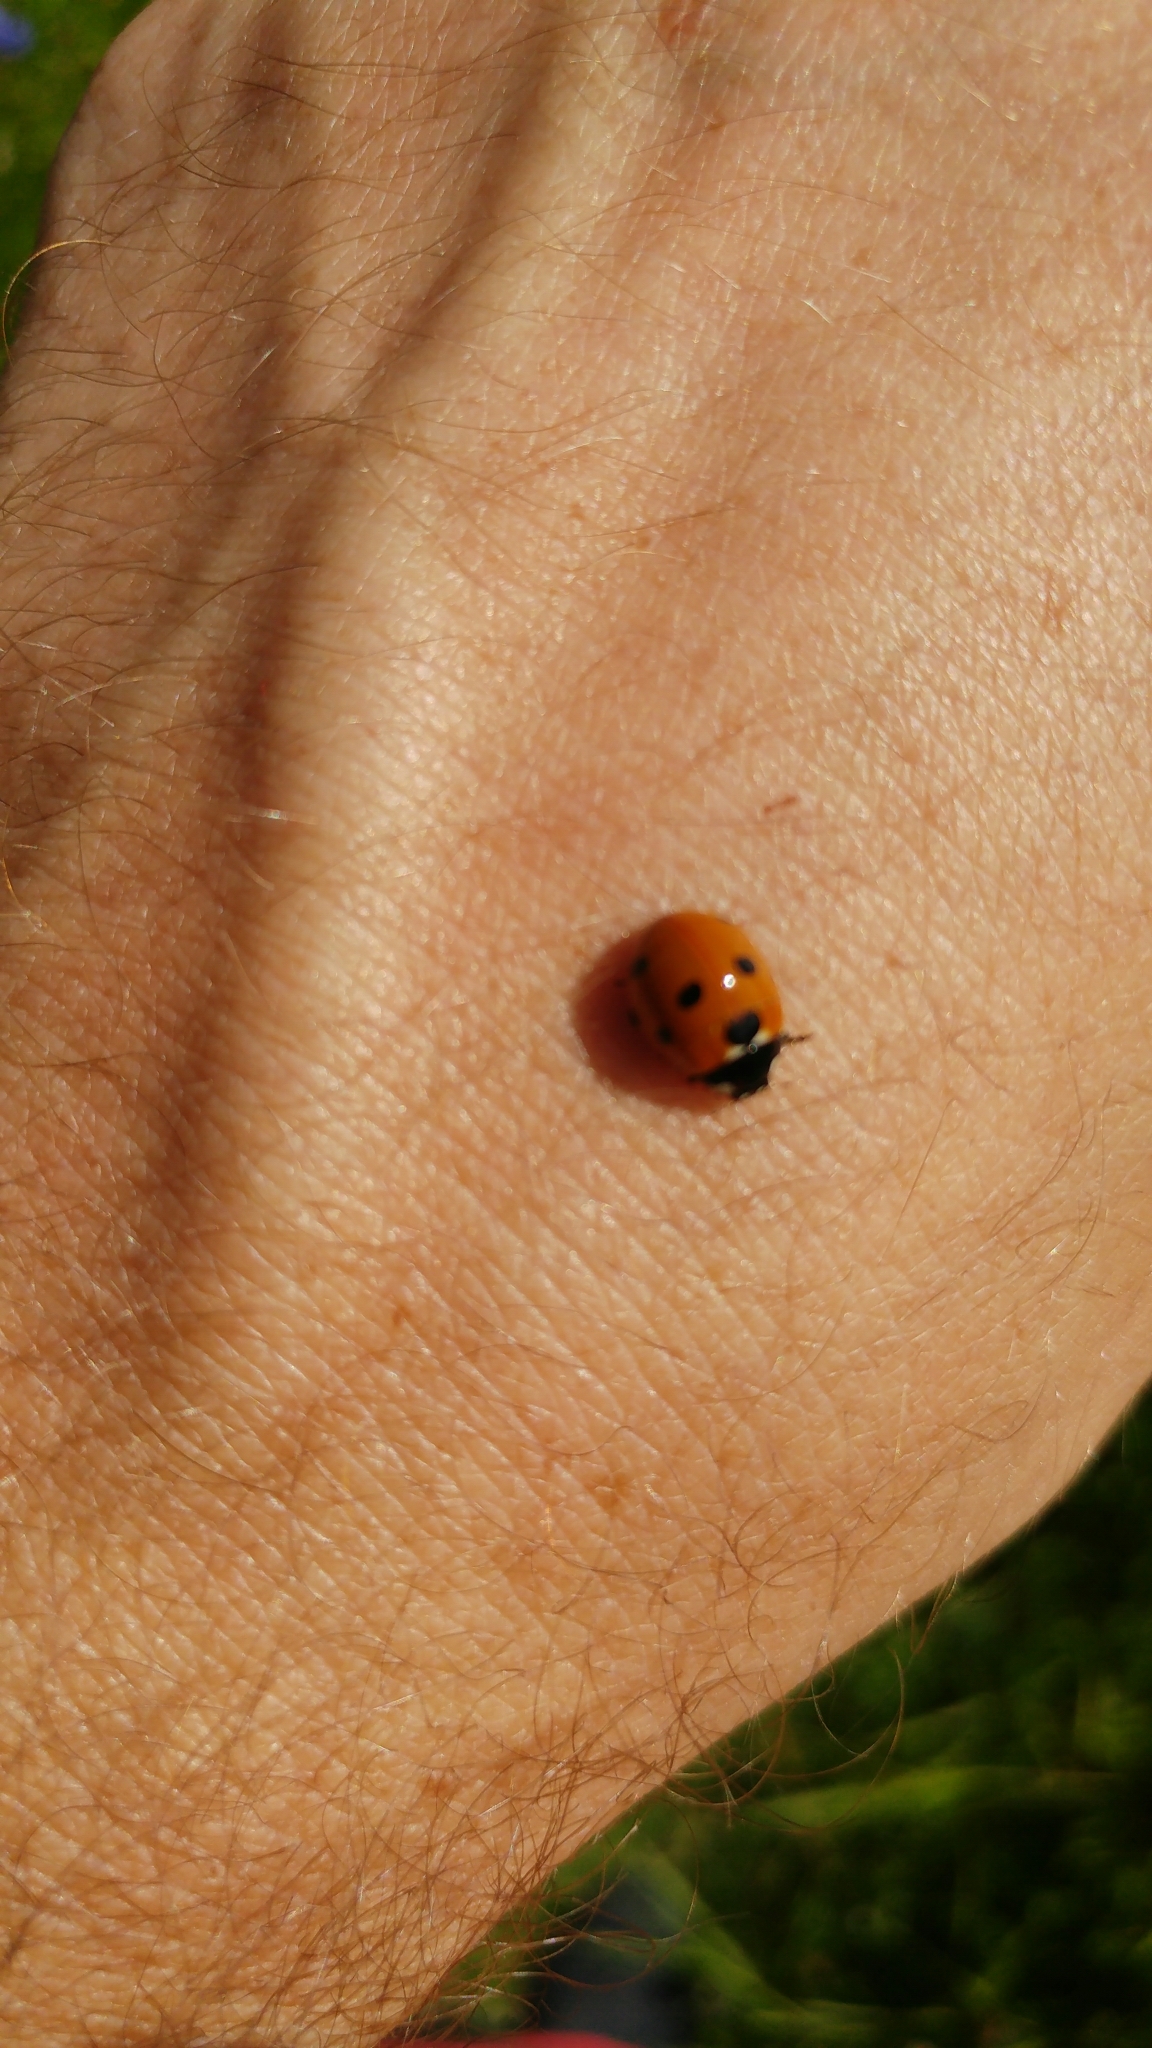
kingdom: Animalia
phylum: Arthropoda
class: Insecta
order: Coleoptera
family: Coccinellidae
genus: Coccinella
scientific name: Coccinella septempunctata
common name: Sevenspotted lady beetle
